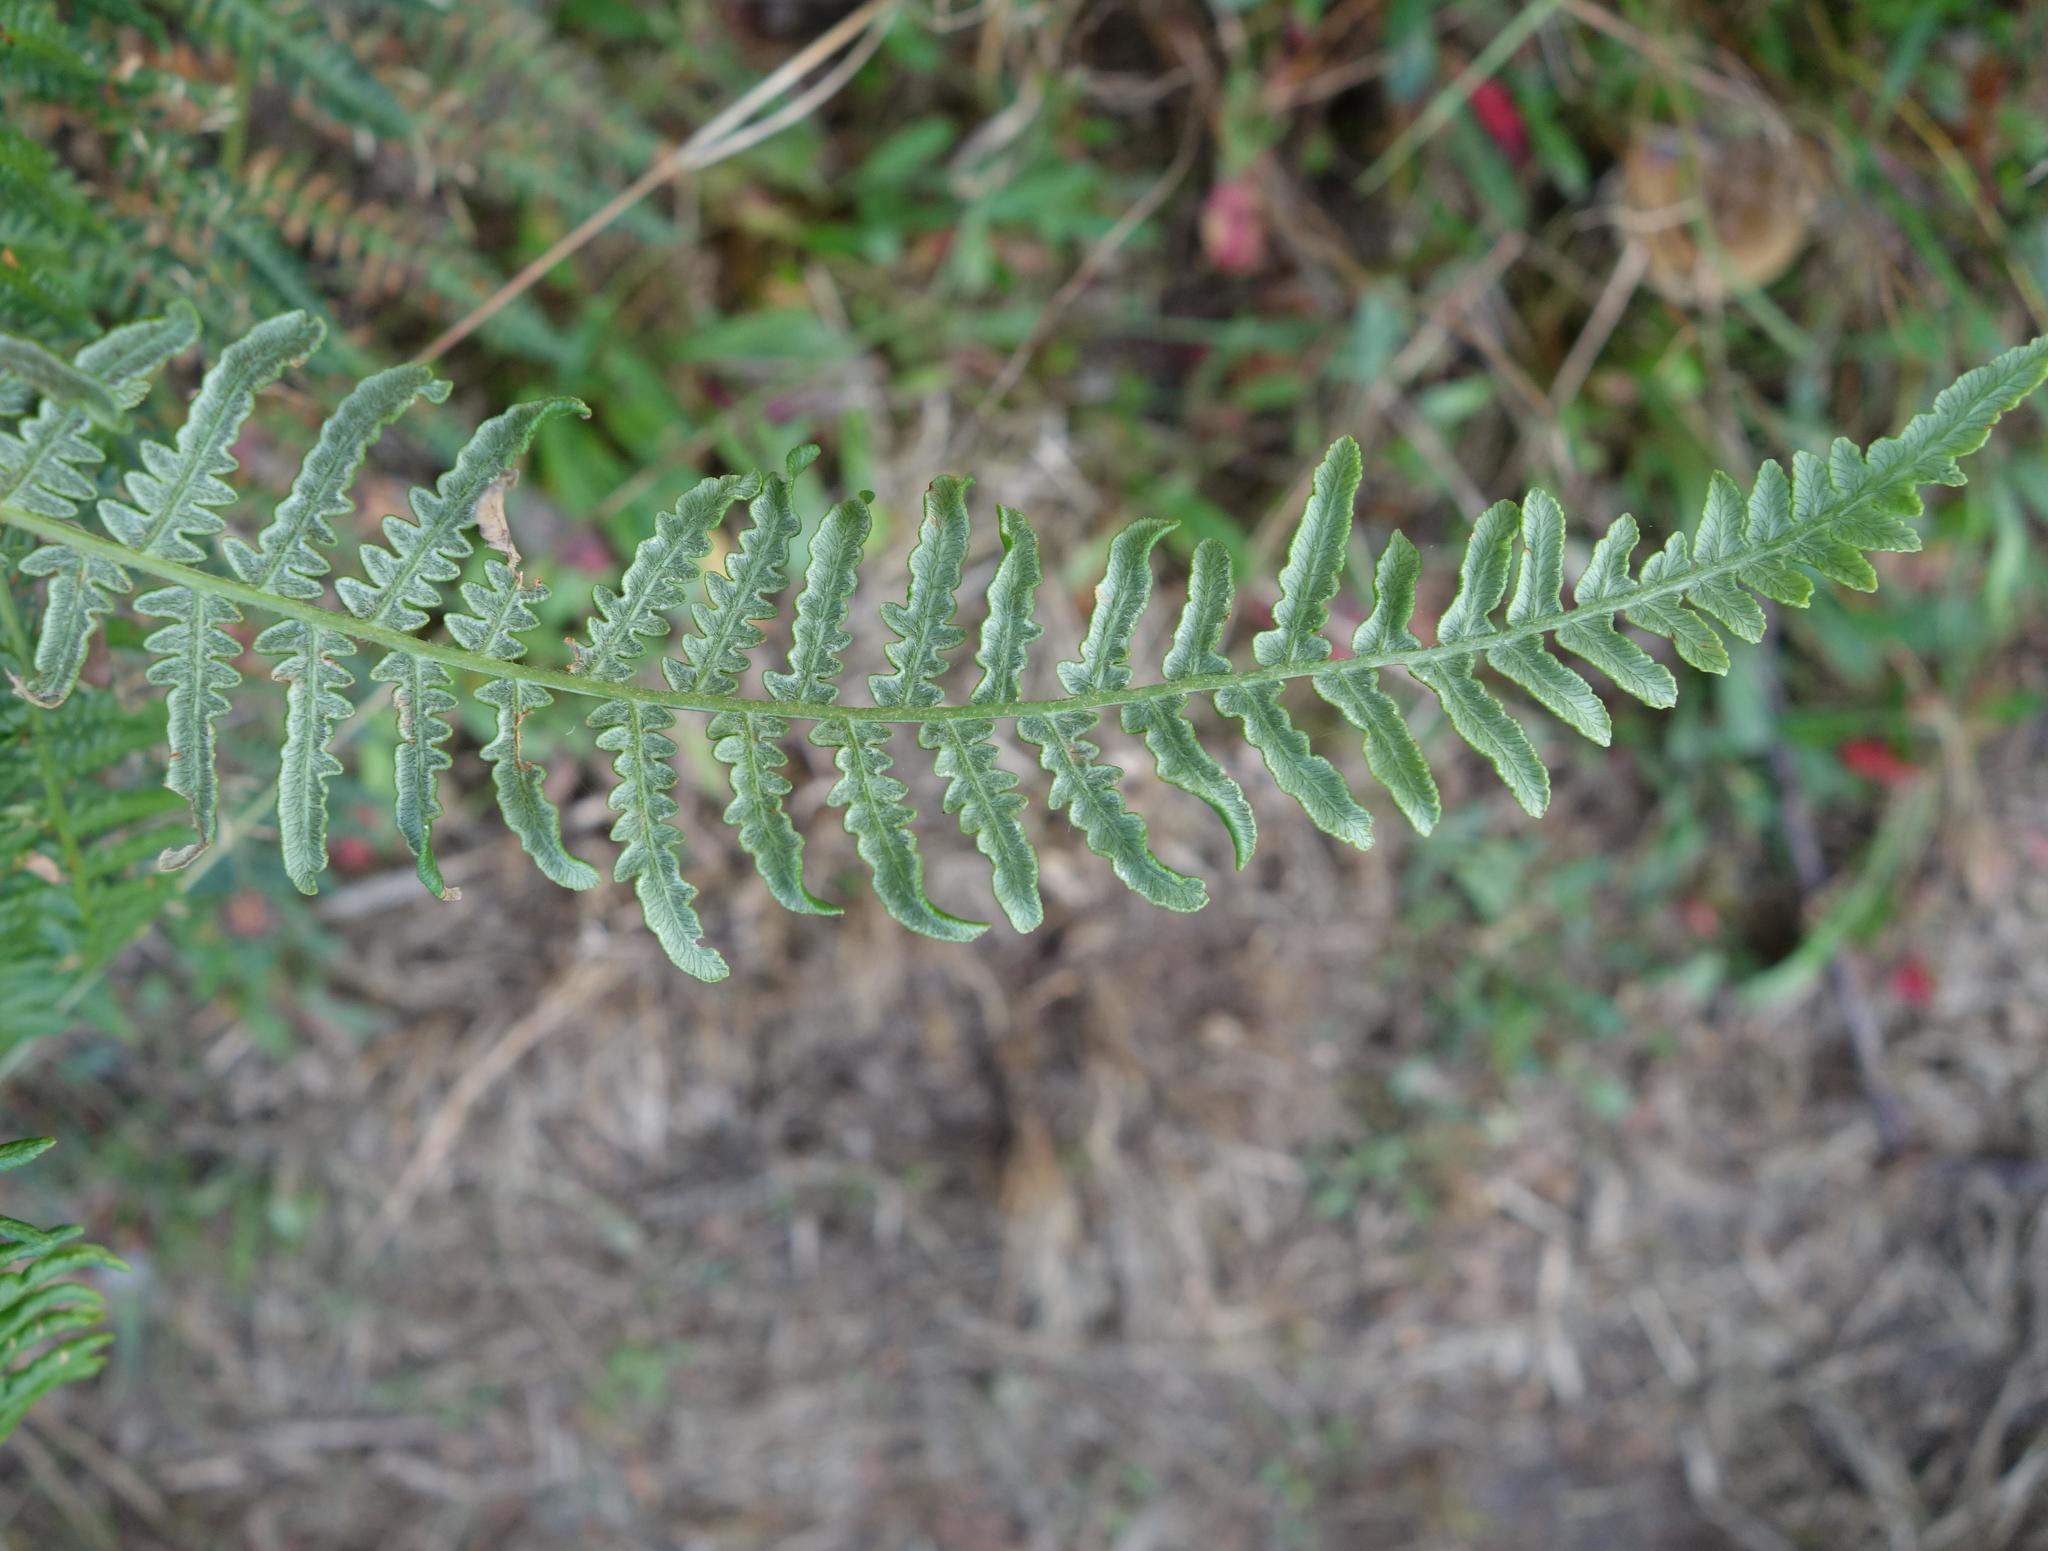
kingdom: Plantae
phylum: Tracheophyta
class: Polypodiopsida
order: Polypodiales
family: Dennstaedtiaceae
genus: Pteridium
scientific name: Pteridium aquilinum
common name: Bracken
